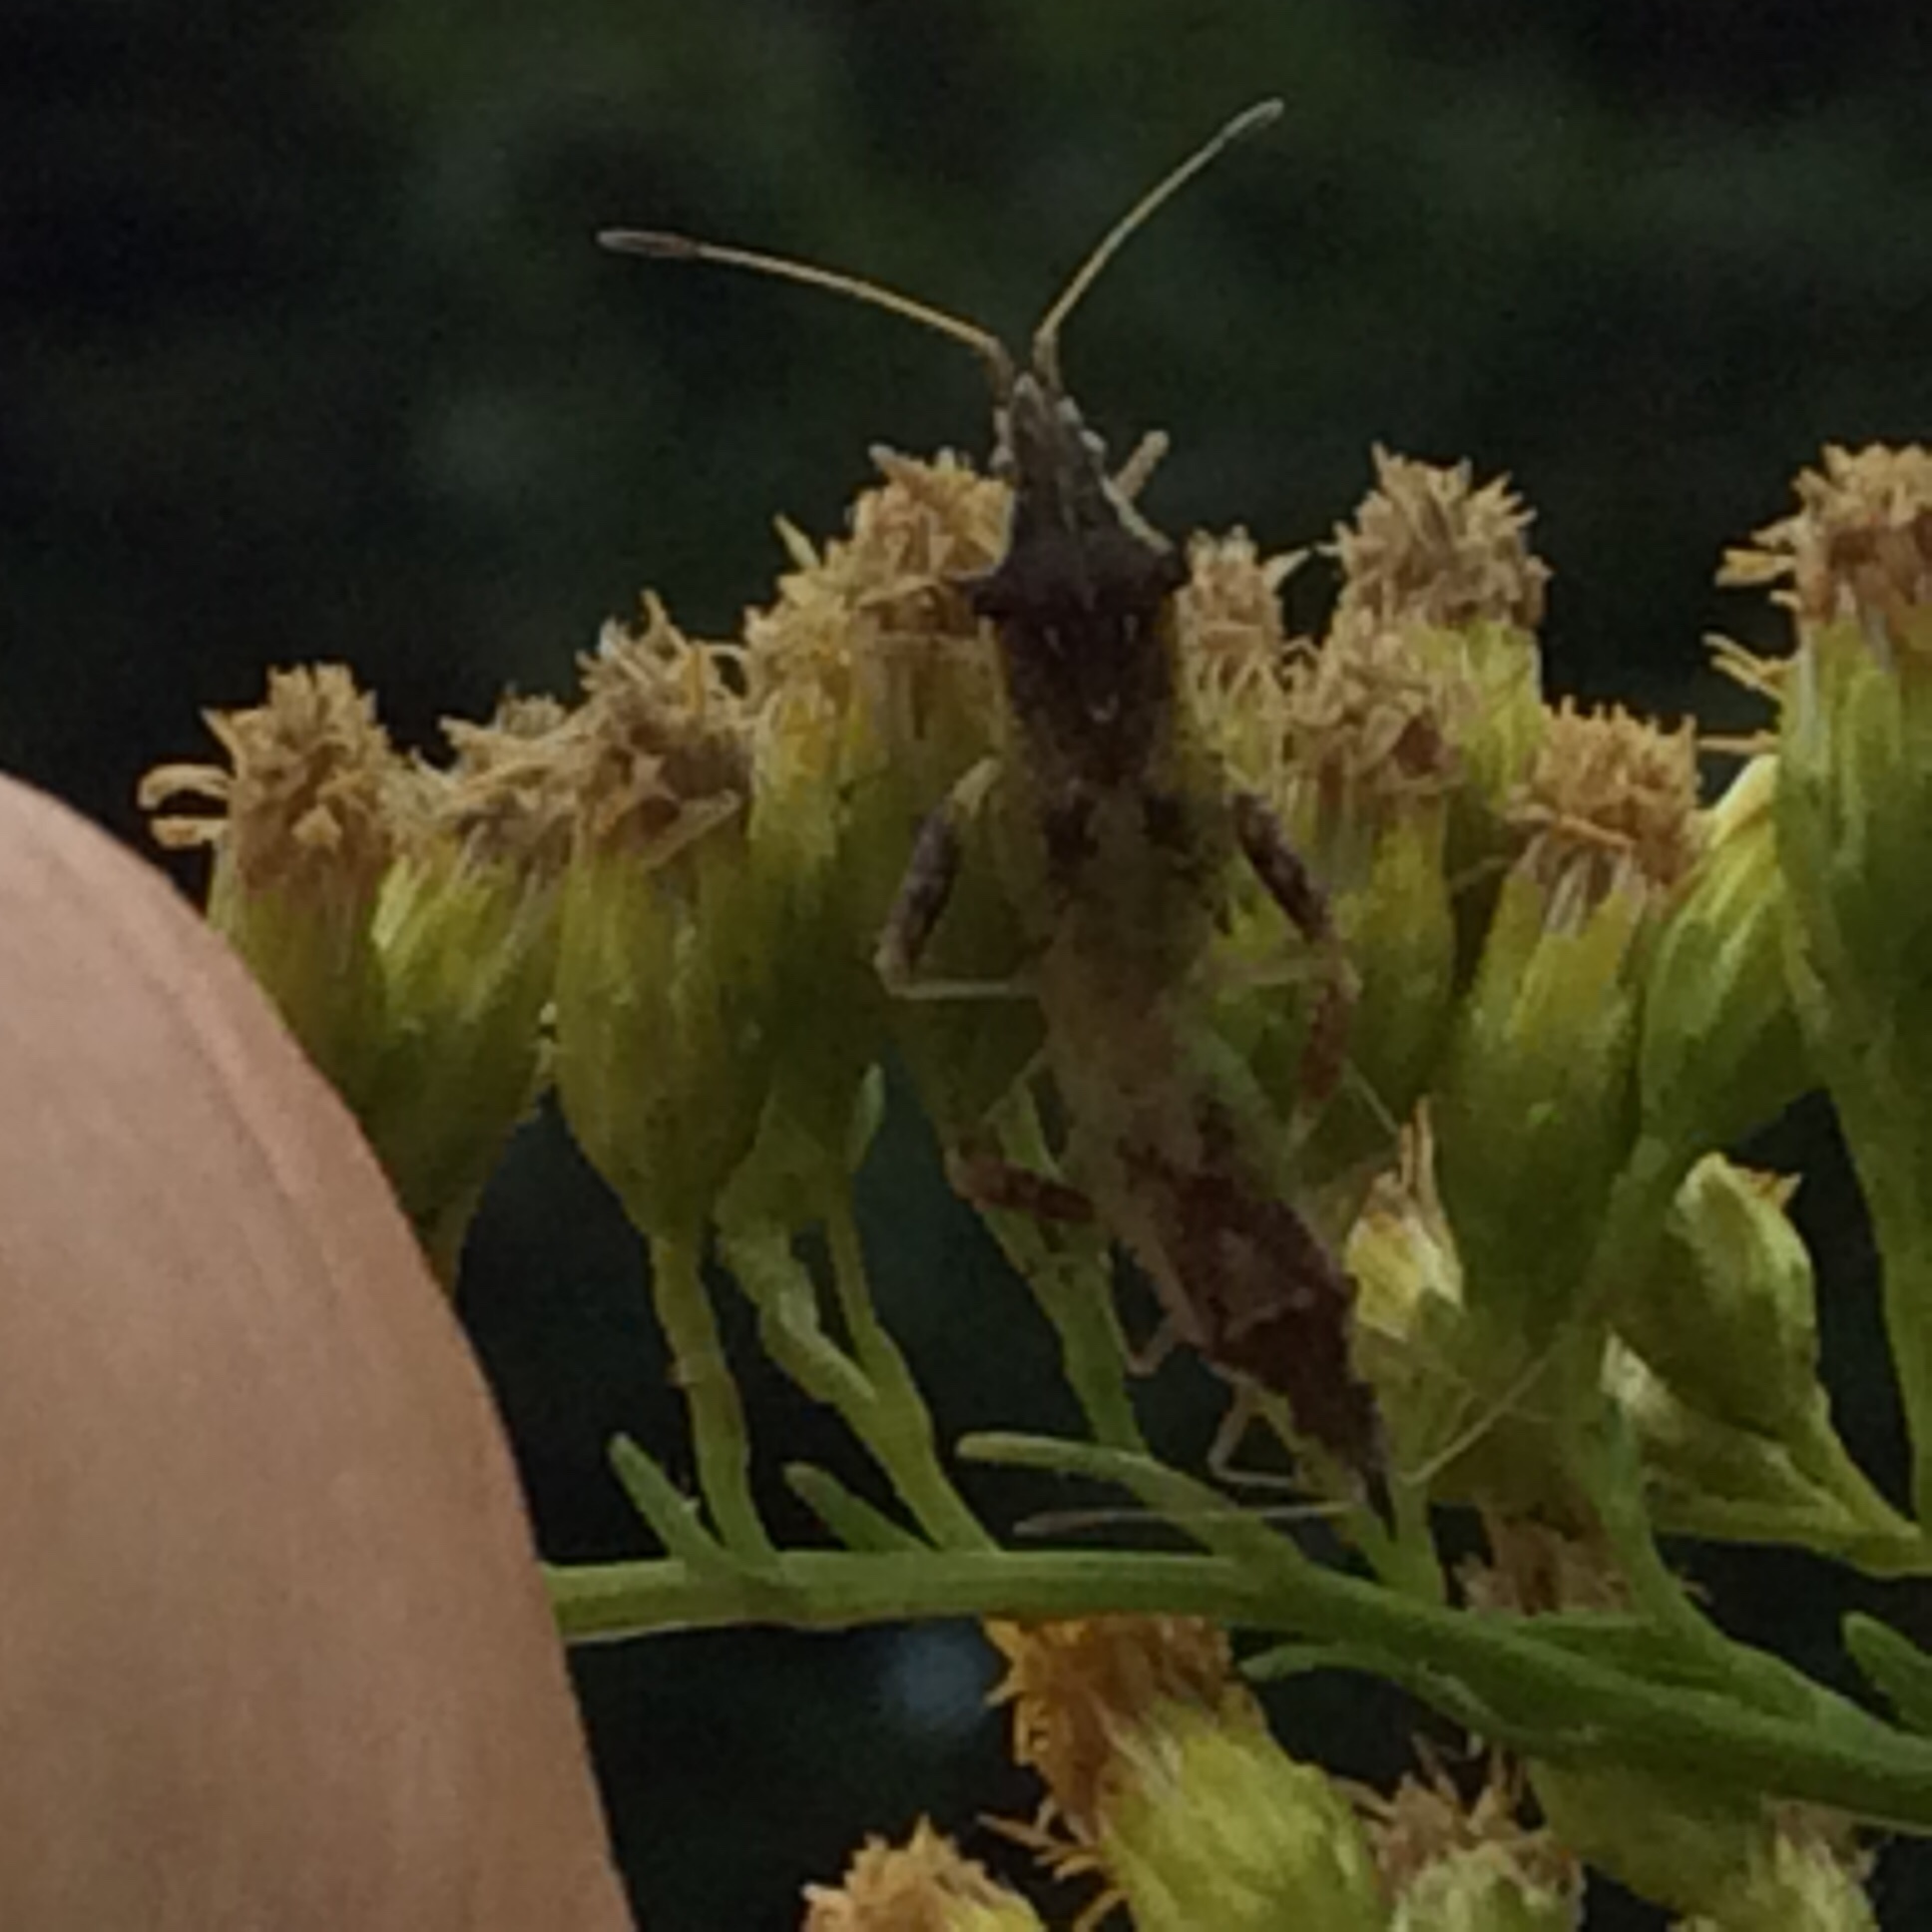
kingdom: Animalia
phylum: Arthropoda
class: Insecta
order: Hemiptera
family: Rhopalidae
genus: Harmostes
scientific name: Harmostes reflexulus
